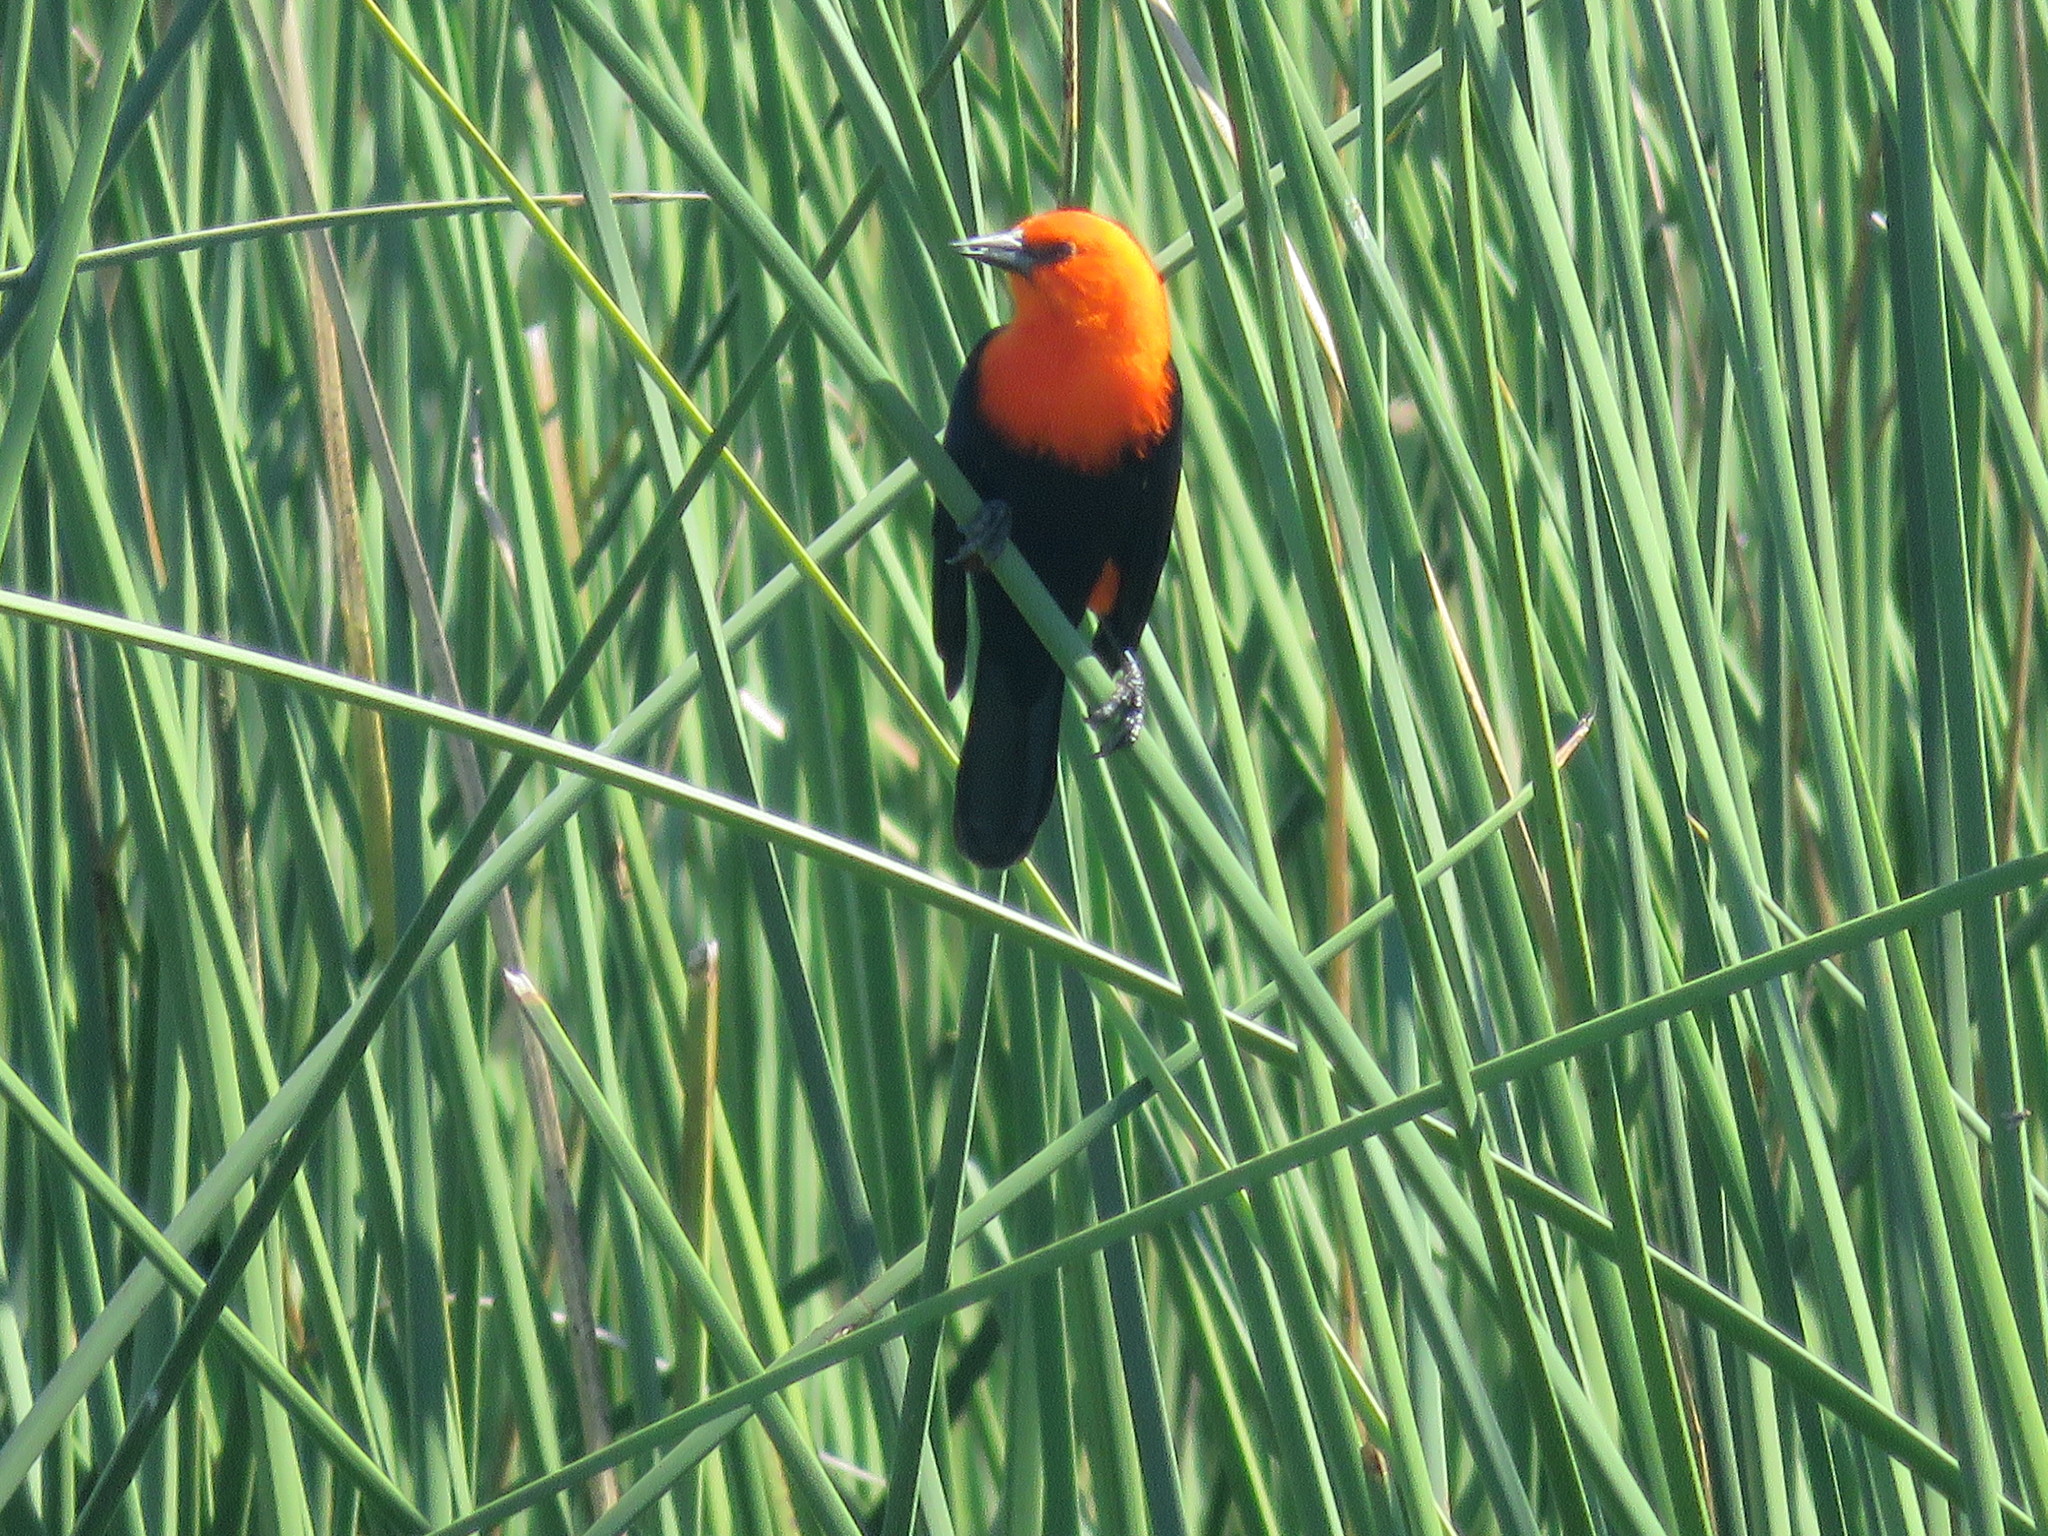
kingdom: Animalia
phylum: Chordata
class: Aves
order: Passeriformes
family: Icteridae
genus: Amblyramphus
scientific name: Amblyramphus holosericeus
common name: Scarlet-headed blackbird
